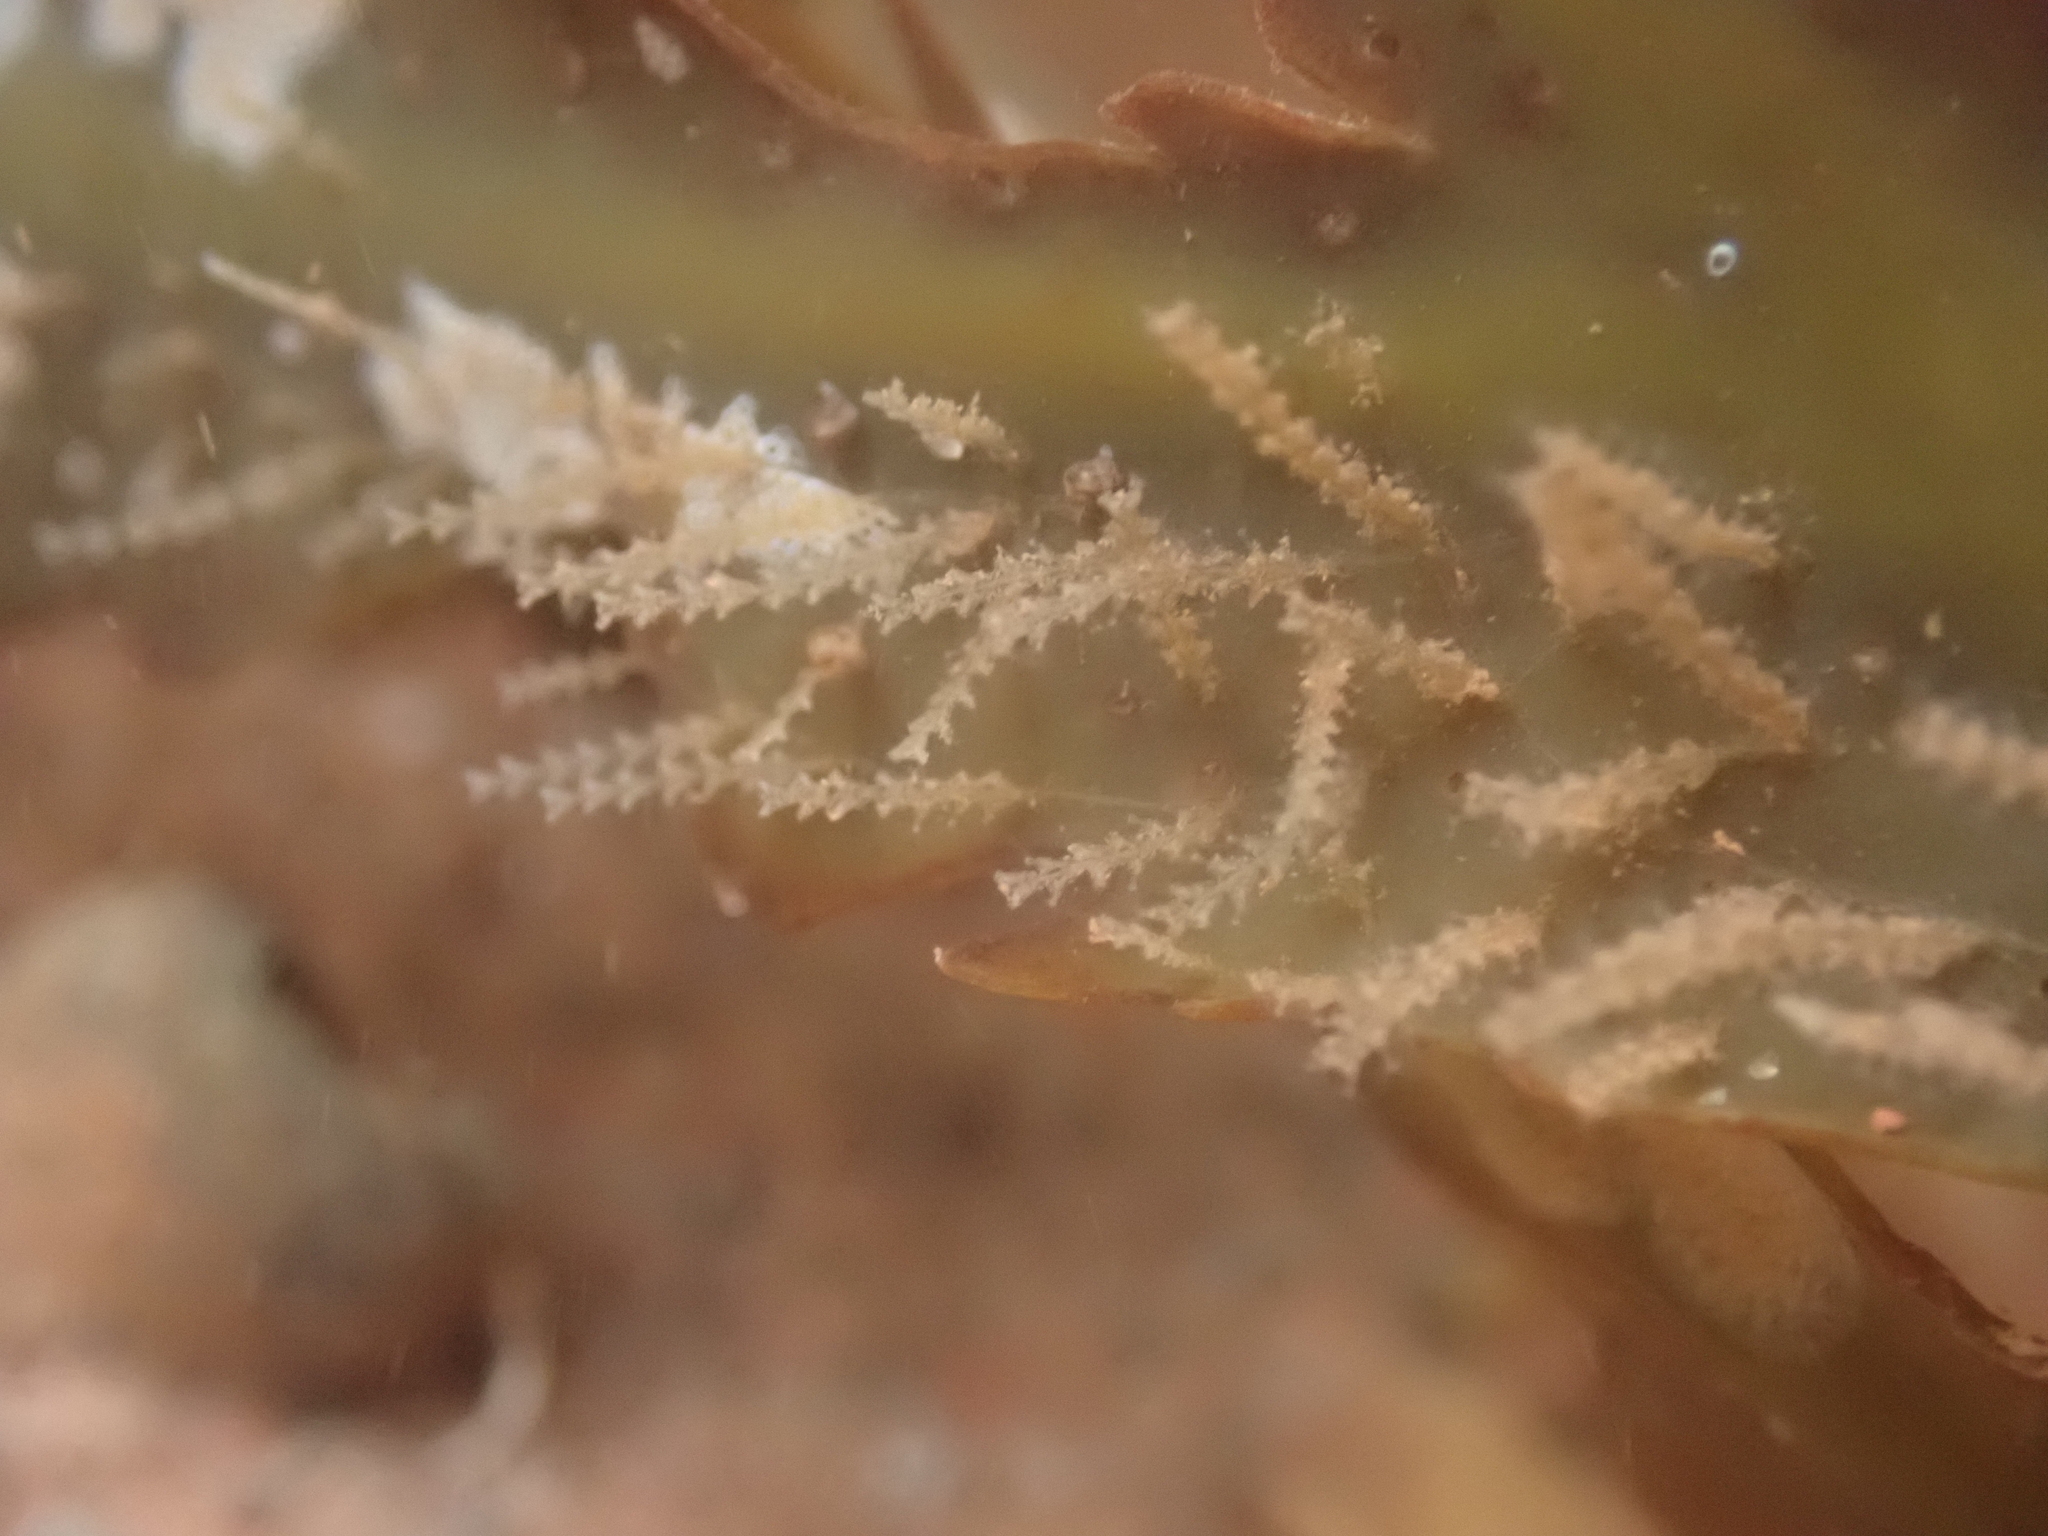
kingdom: Animalia
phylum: Cnidaria
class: Hydrozoa
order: Leptothecata
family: Sertulariidae
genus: Dynamena
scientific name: Dynamena pumila
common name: Sea oak
